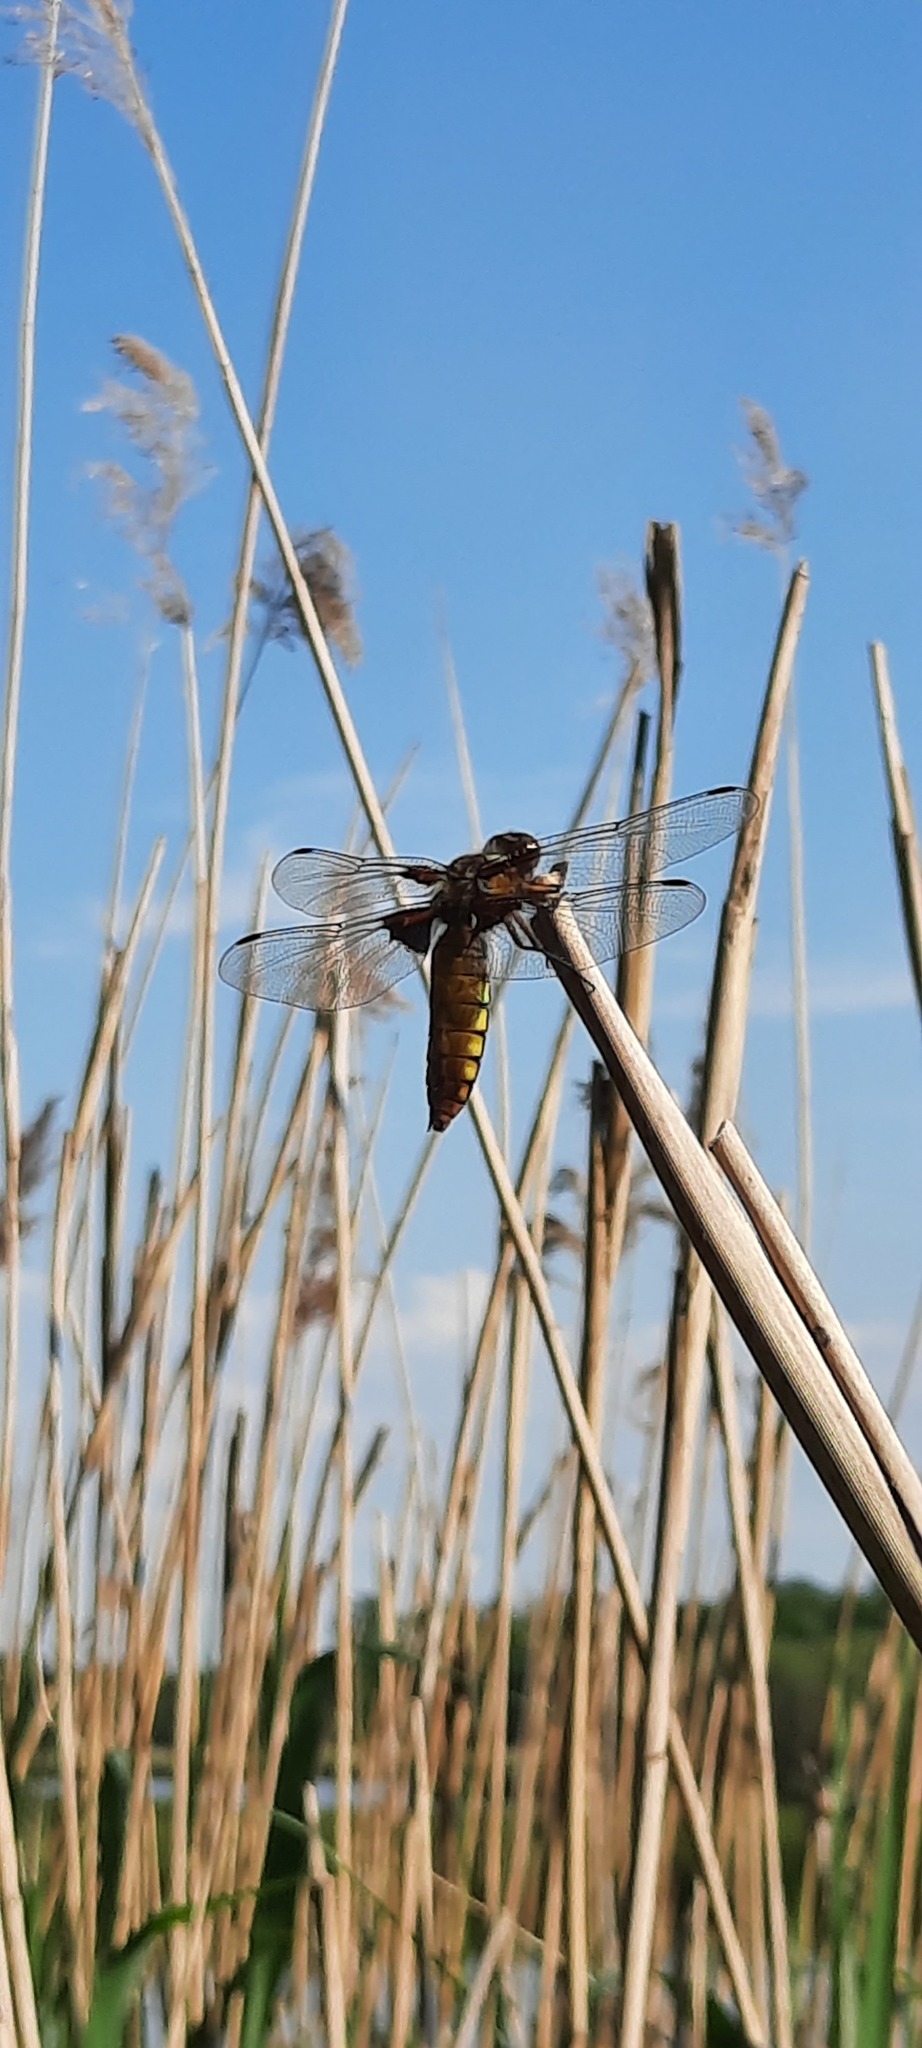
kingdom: Animalia
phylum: Arthropoda
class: Insecta
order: Odonata
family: Libellulidae
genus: Libellula
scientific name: Libellula depressa
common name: Broad-bodied chaser
